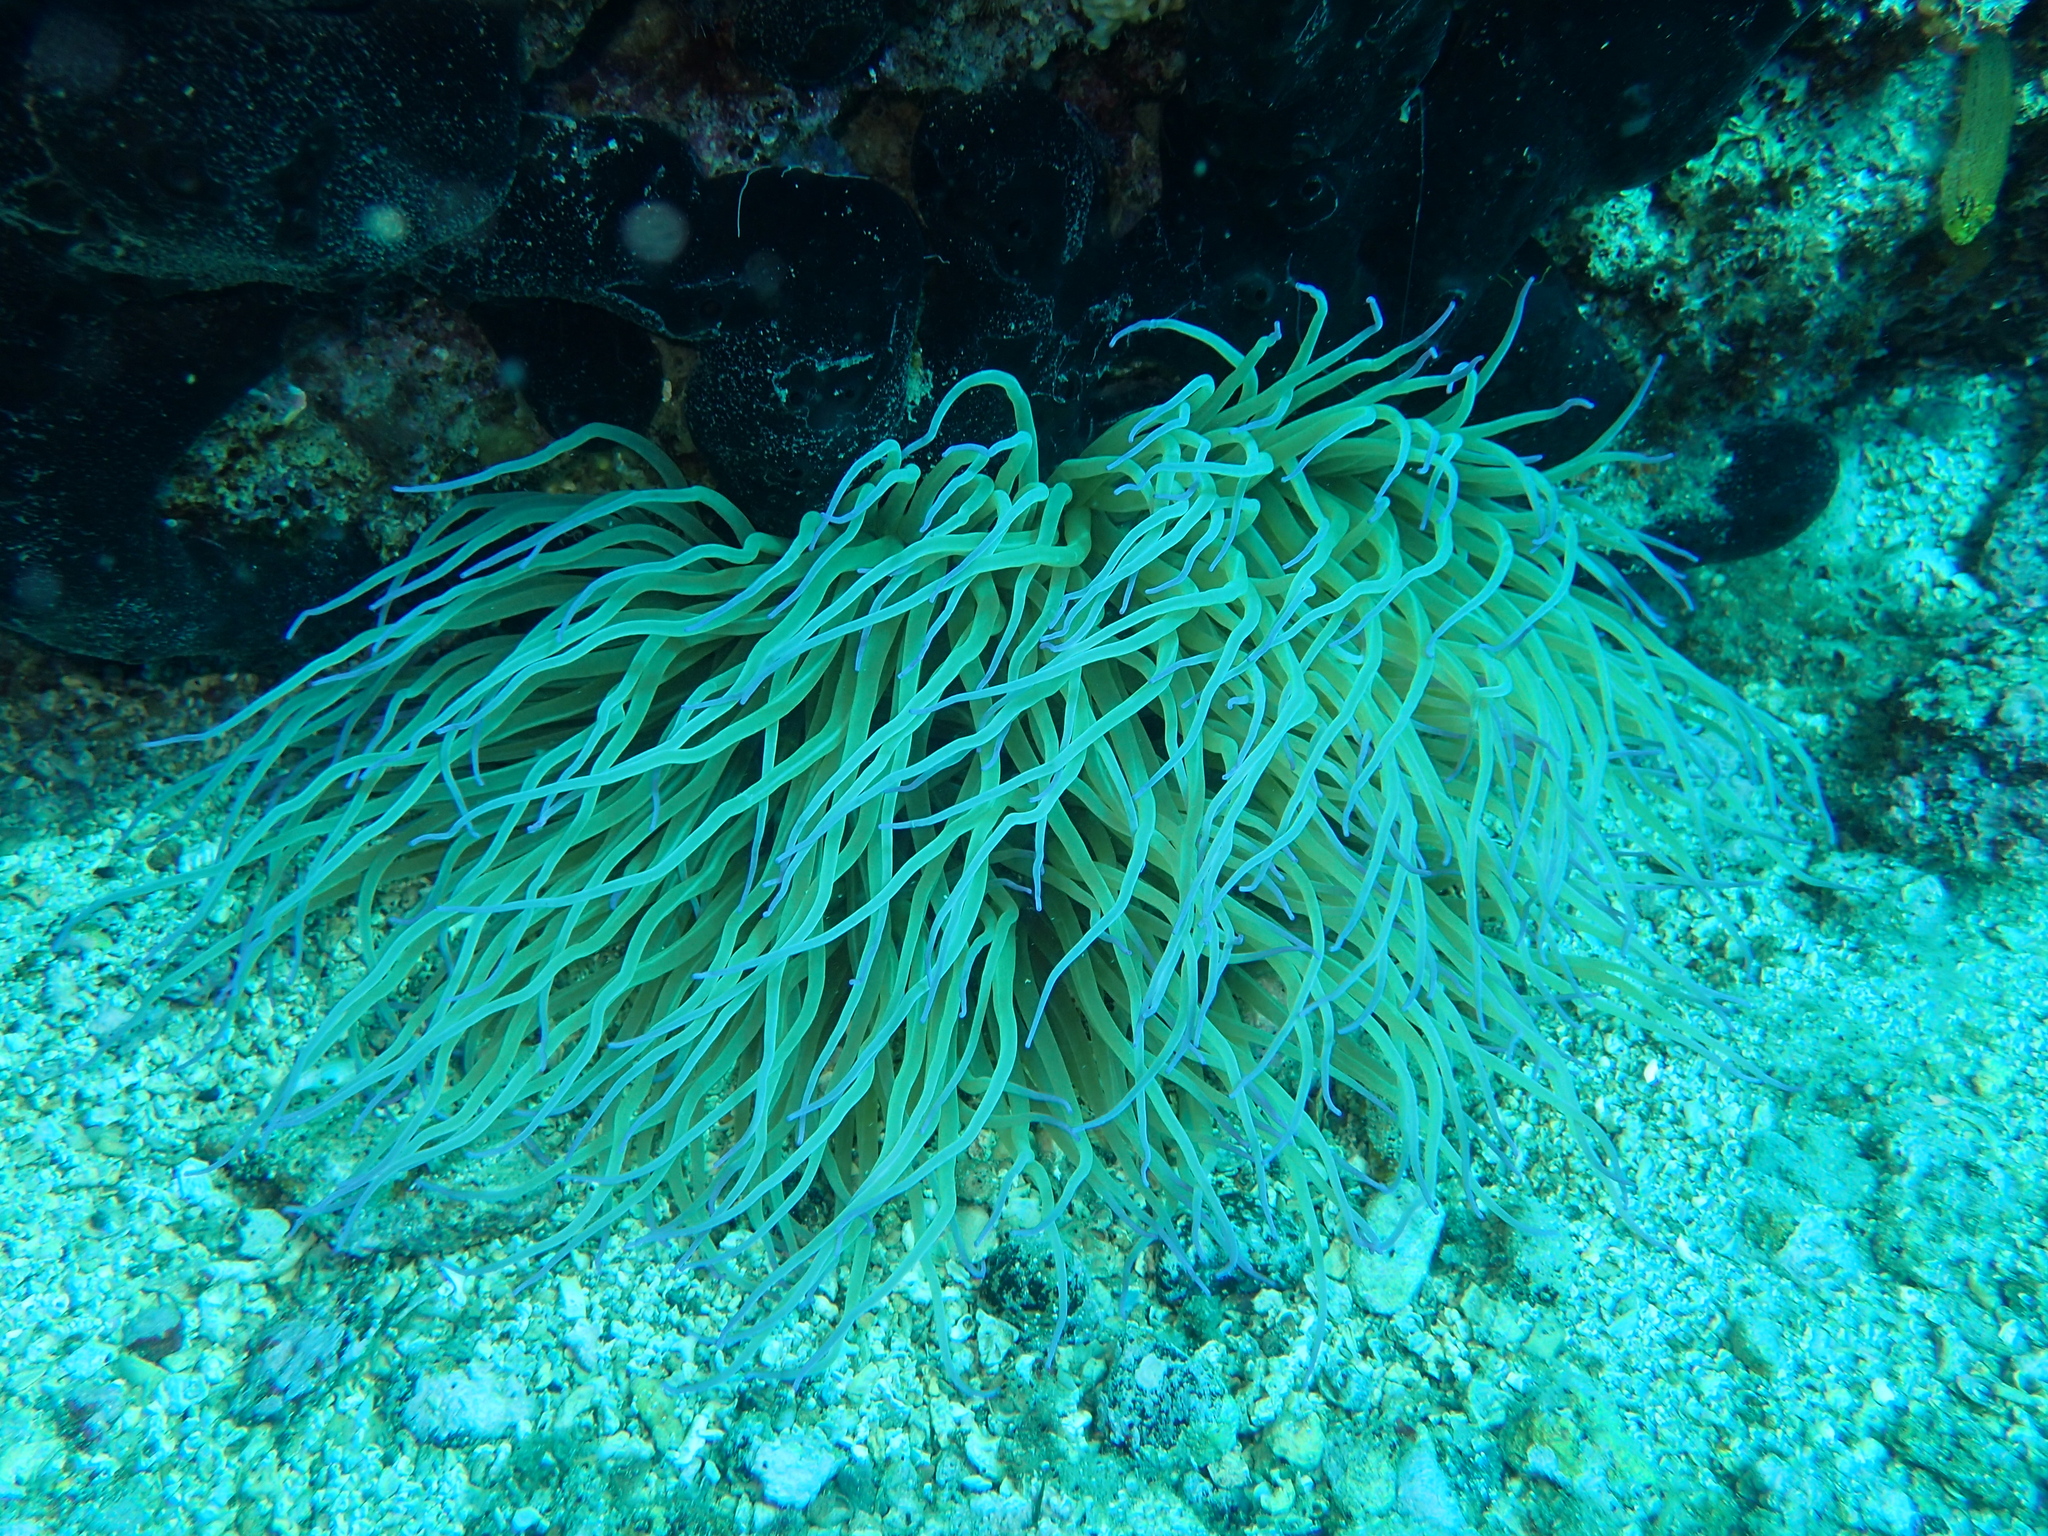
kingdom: Animalia
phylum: Cnidaria
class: Anthozoa
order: Actiniaria
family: Actiniidae
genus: Anemonia
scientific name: Anemonia viridis
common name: Snakelocks anemone
